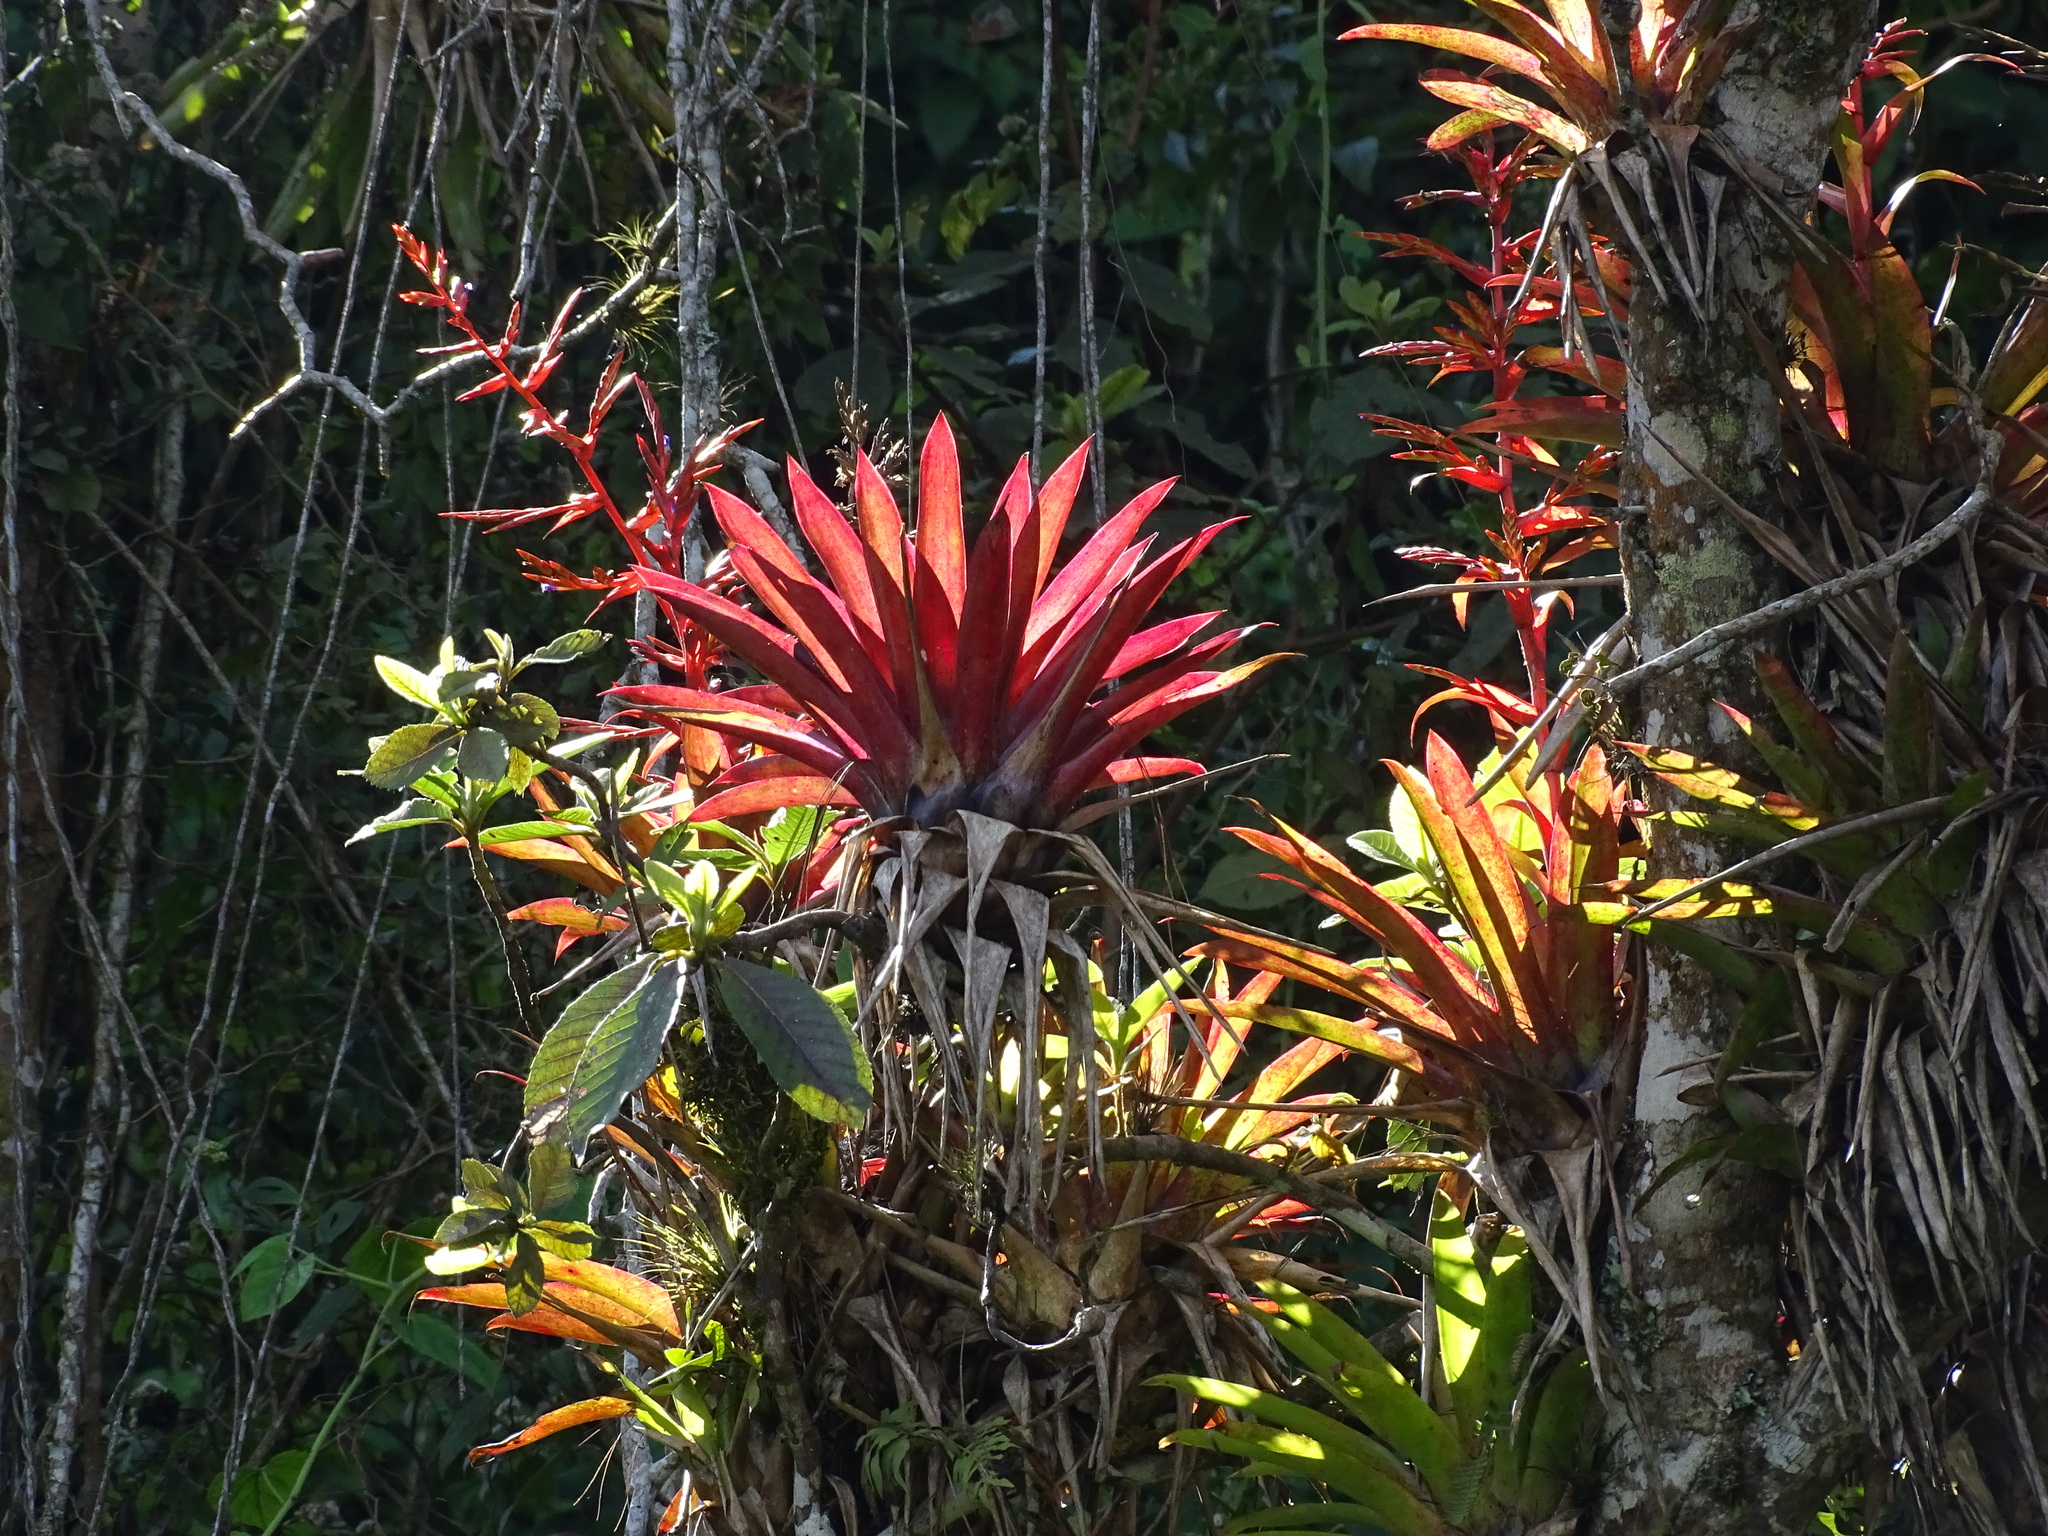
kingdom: Plantae
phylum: Tracheophyta
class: Liliopsida
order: Poales
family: Bromeliaceae
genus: Tillandsia
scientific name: Tillandsia guatemalensis
